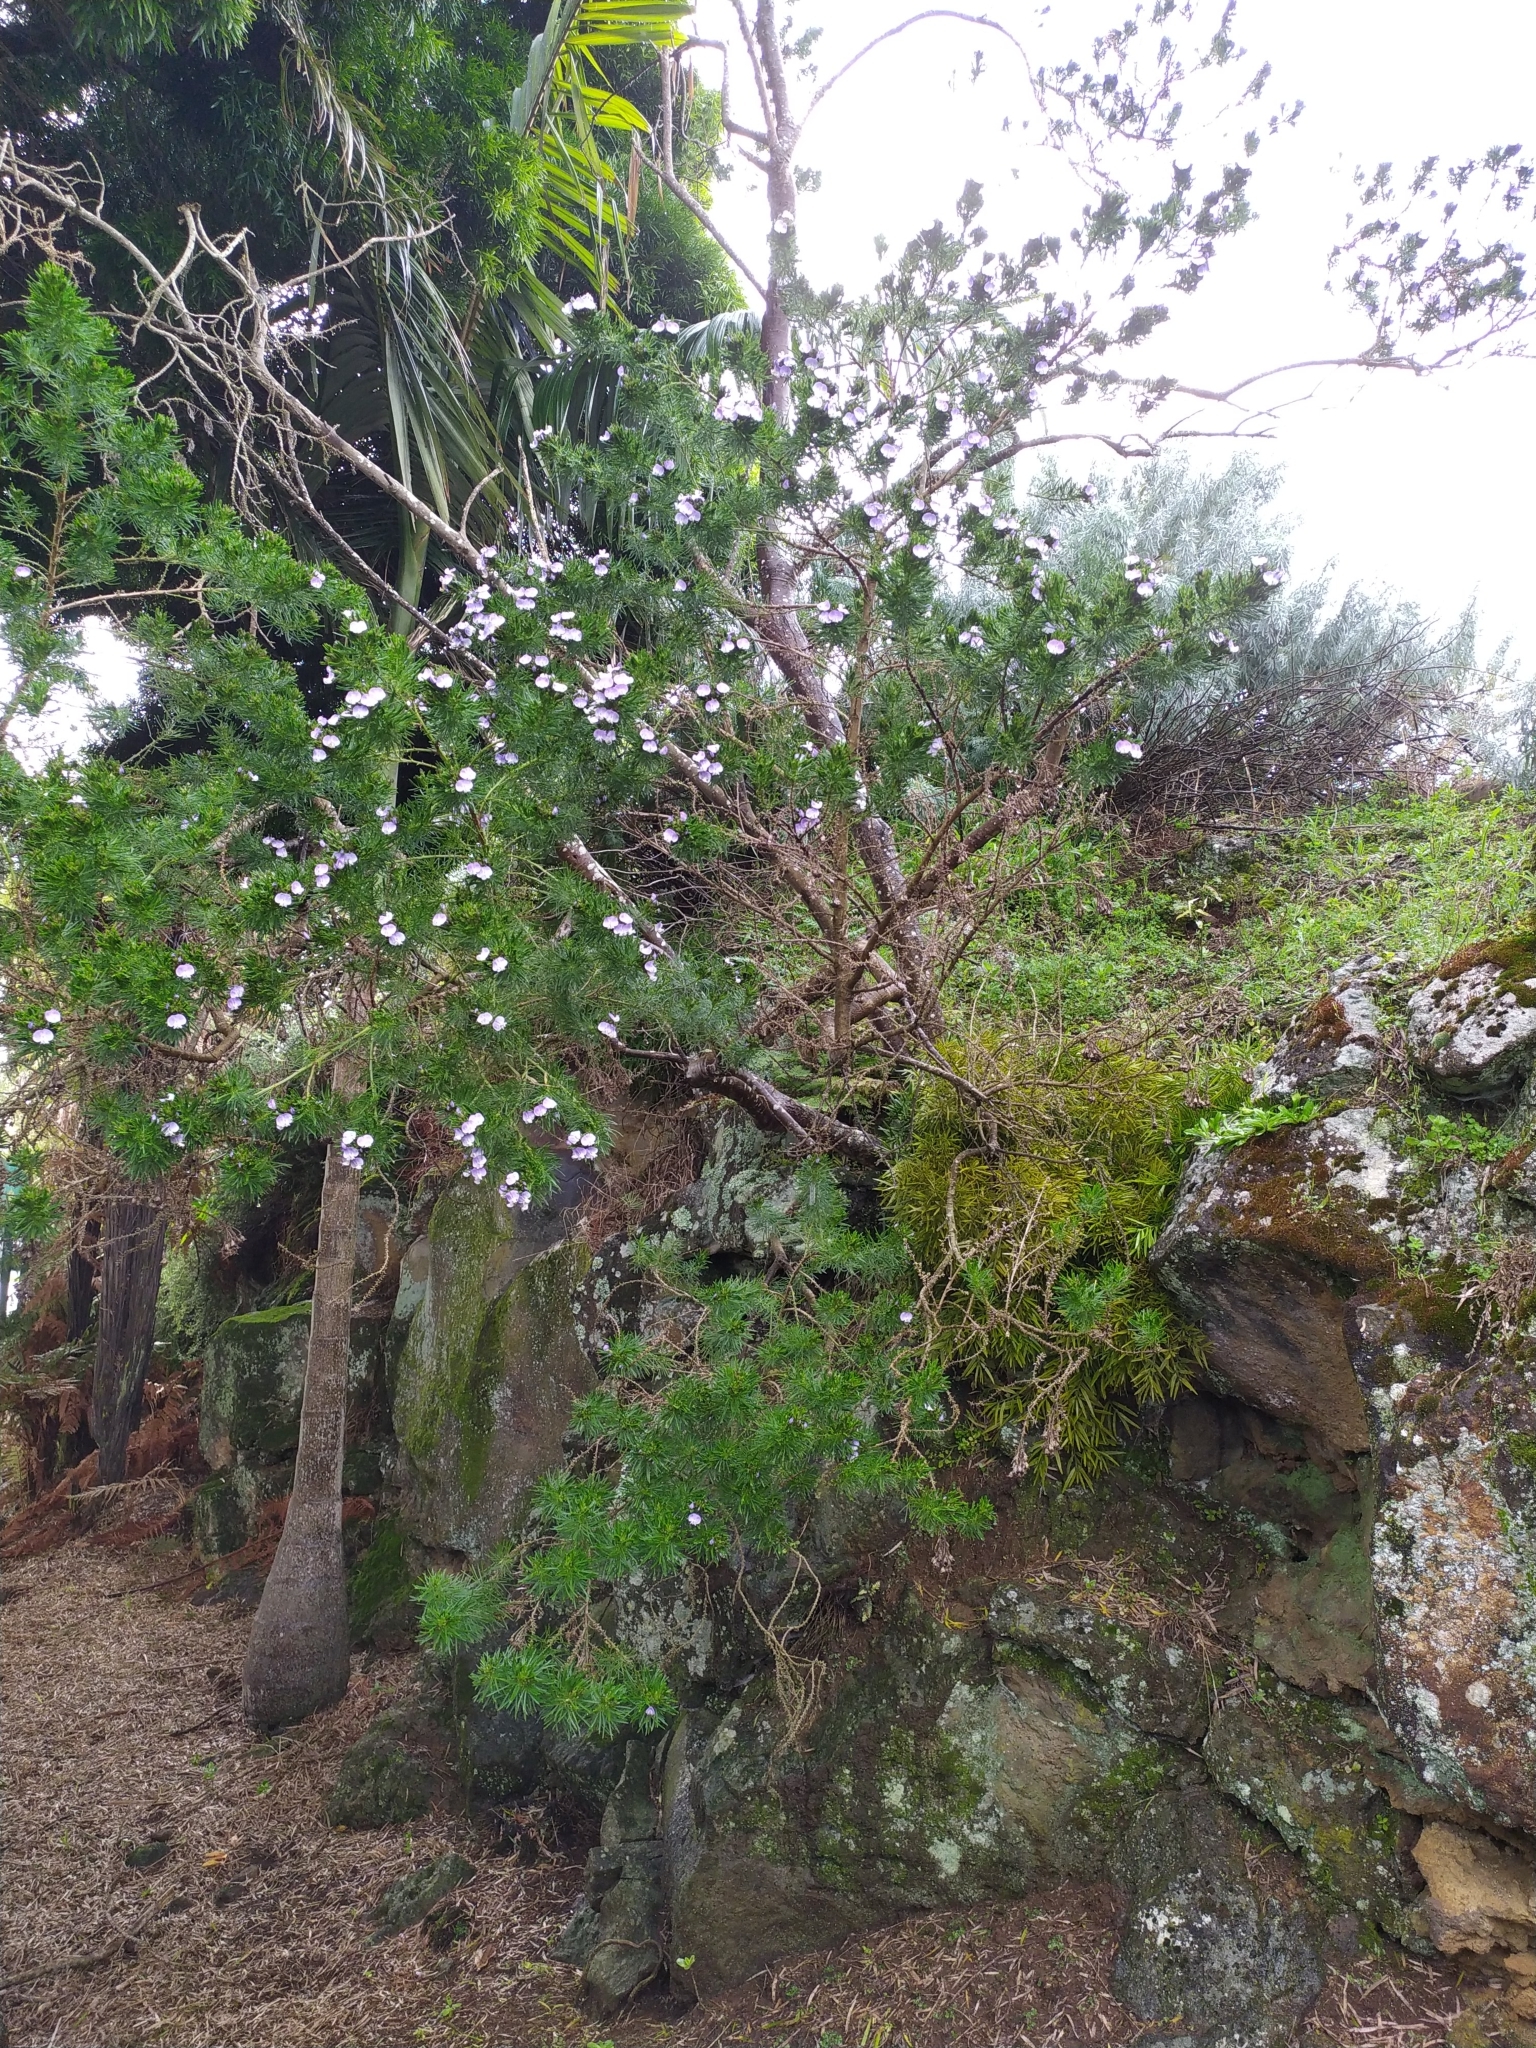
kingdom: Plantae
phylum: Tracheophyta
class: Magnoliopsida
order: Fabales
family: Fabaceae
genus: Psoralea
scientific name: Psoralea arborea
